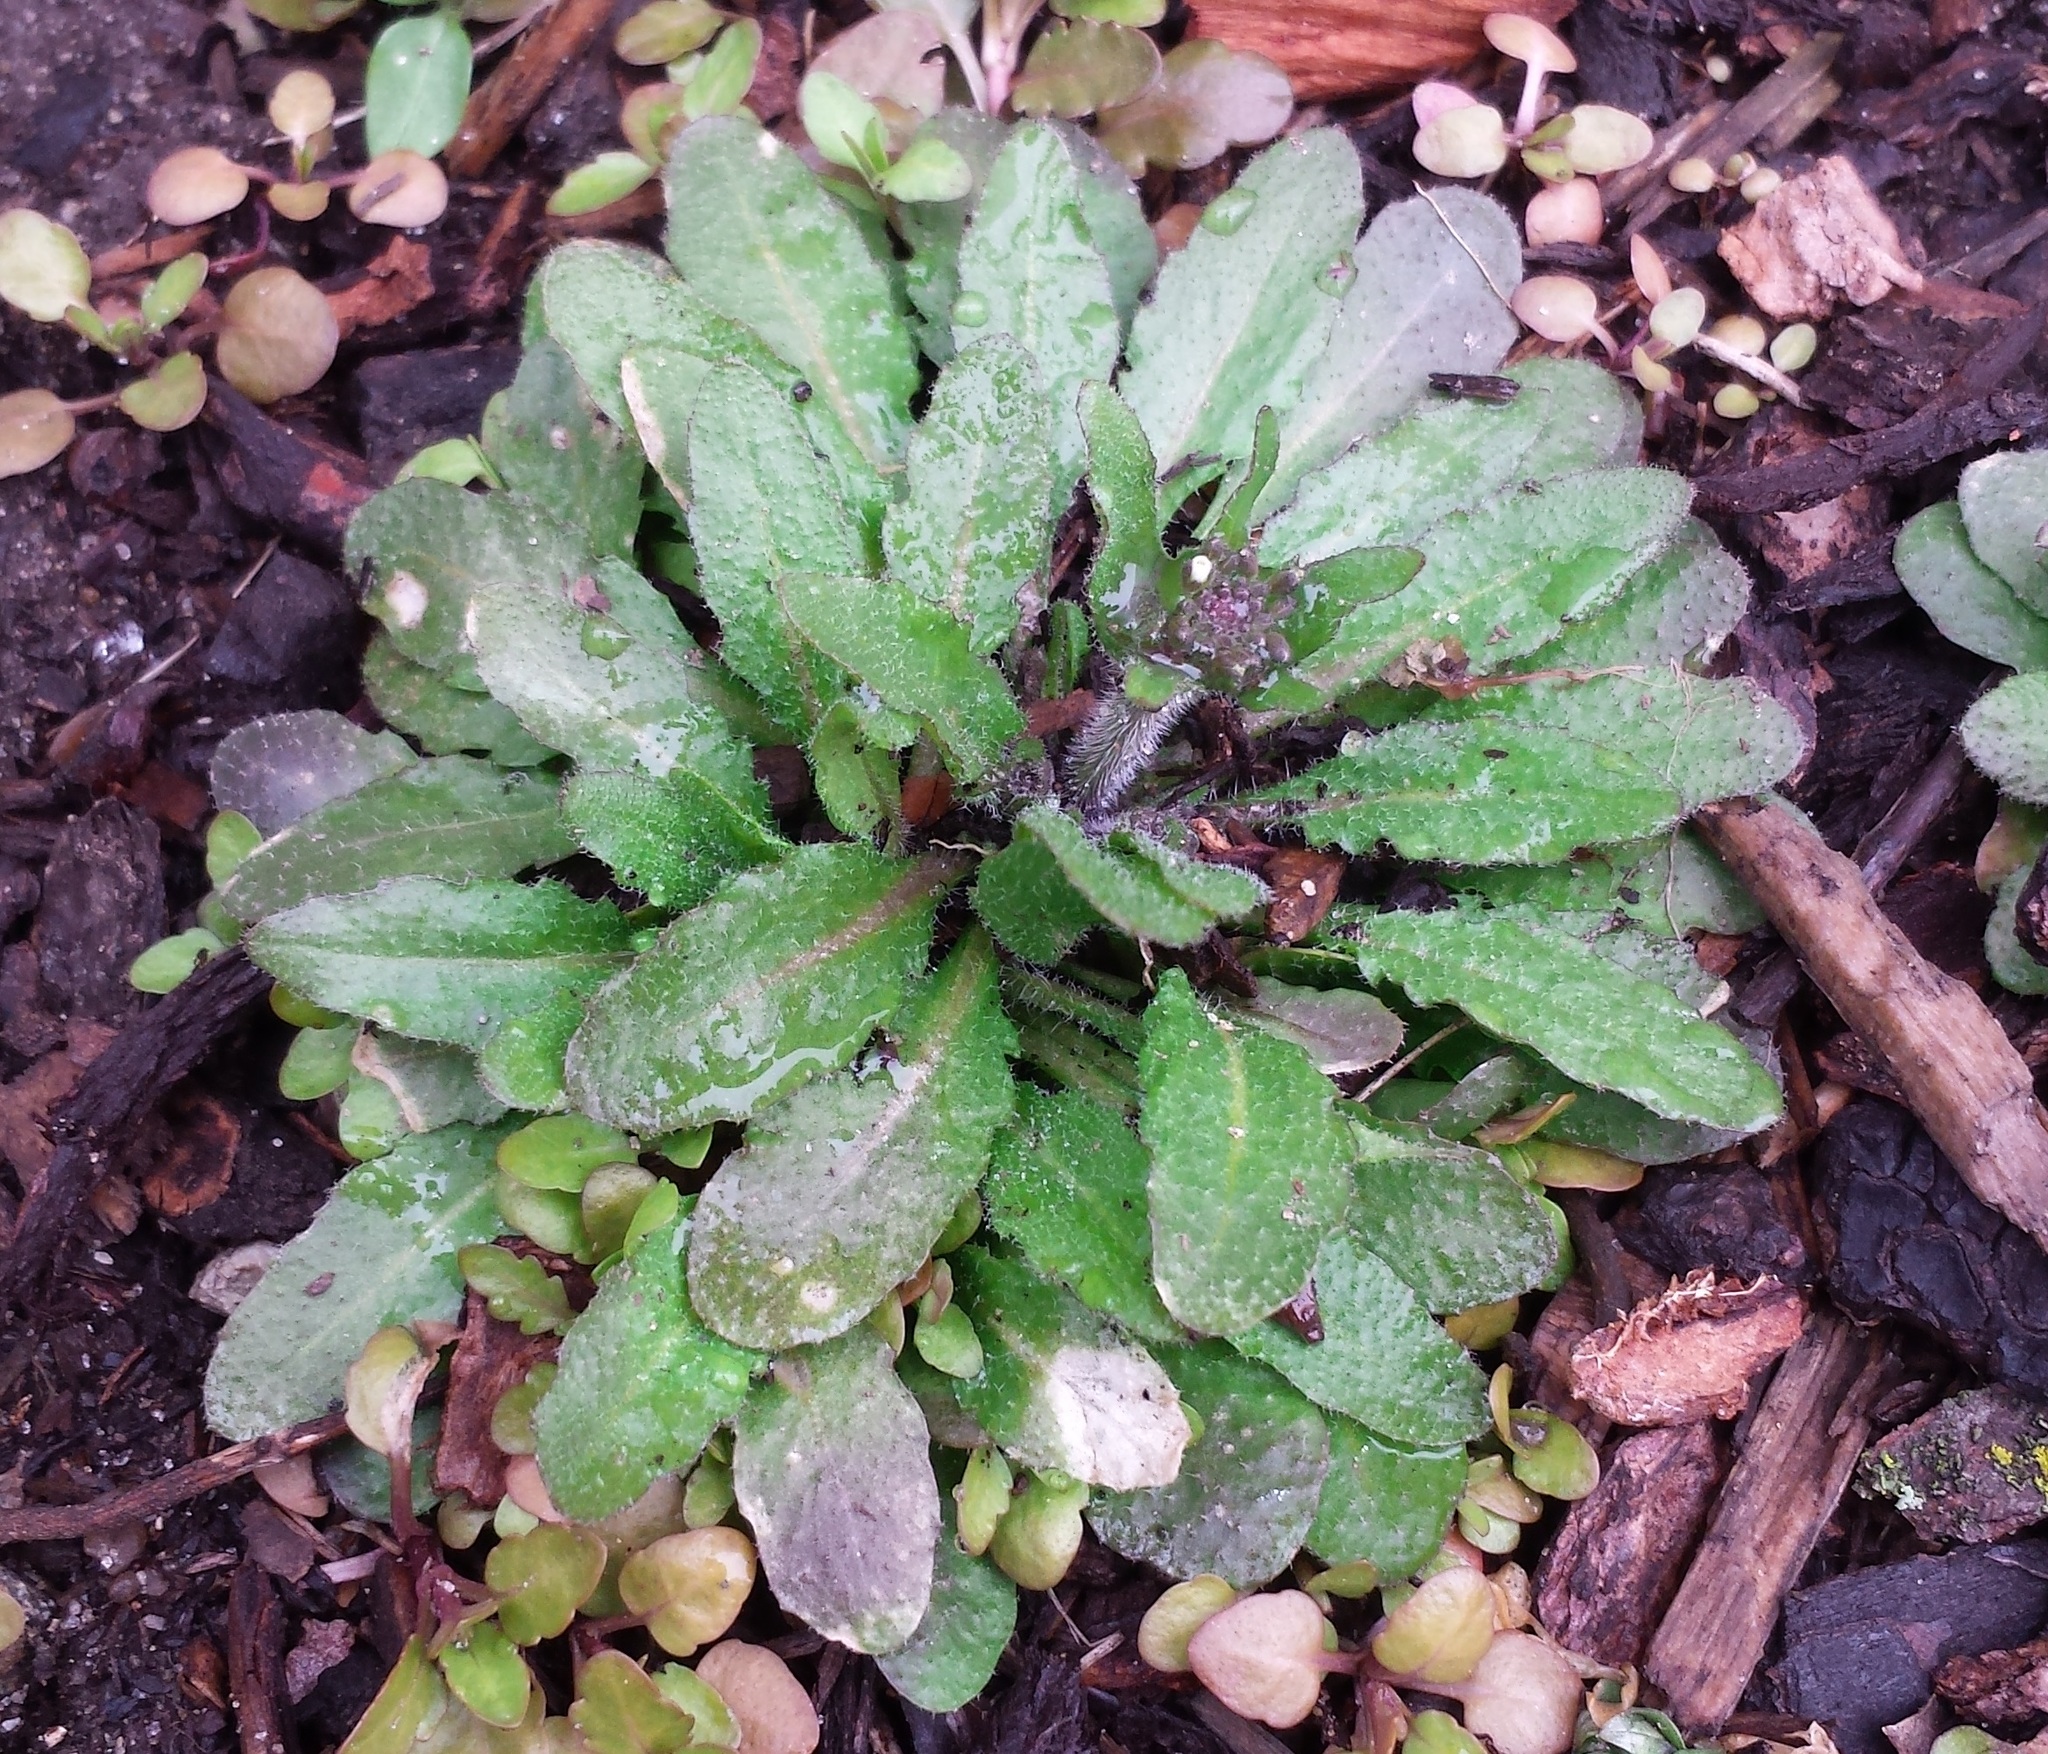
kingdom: Plantae
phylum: Tracheophyta
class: Magnoliopsida
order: Brassicales
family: Brassicaceae
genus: Arabidopsis
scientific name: Arabidopsis thaliana
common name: Thale cress
